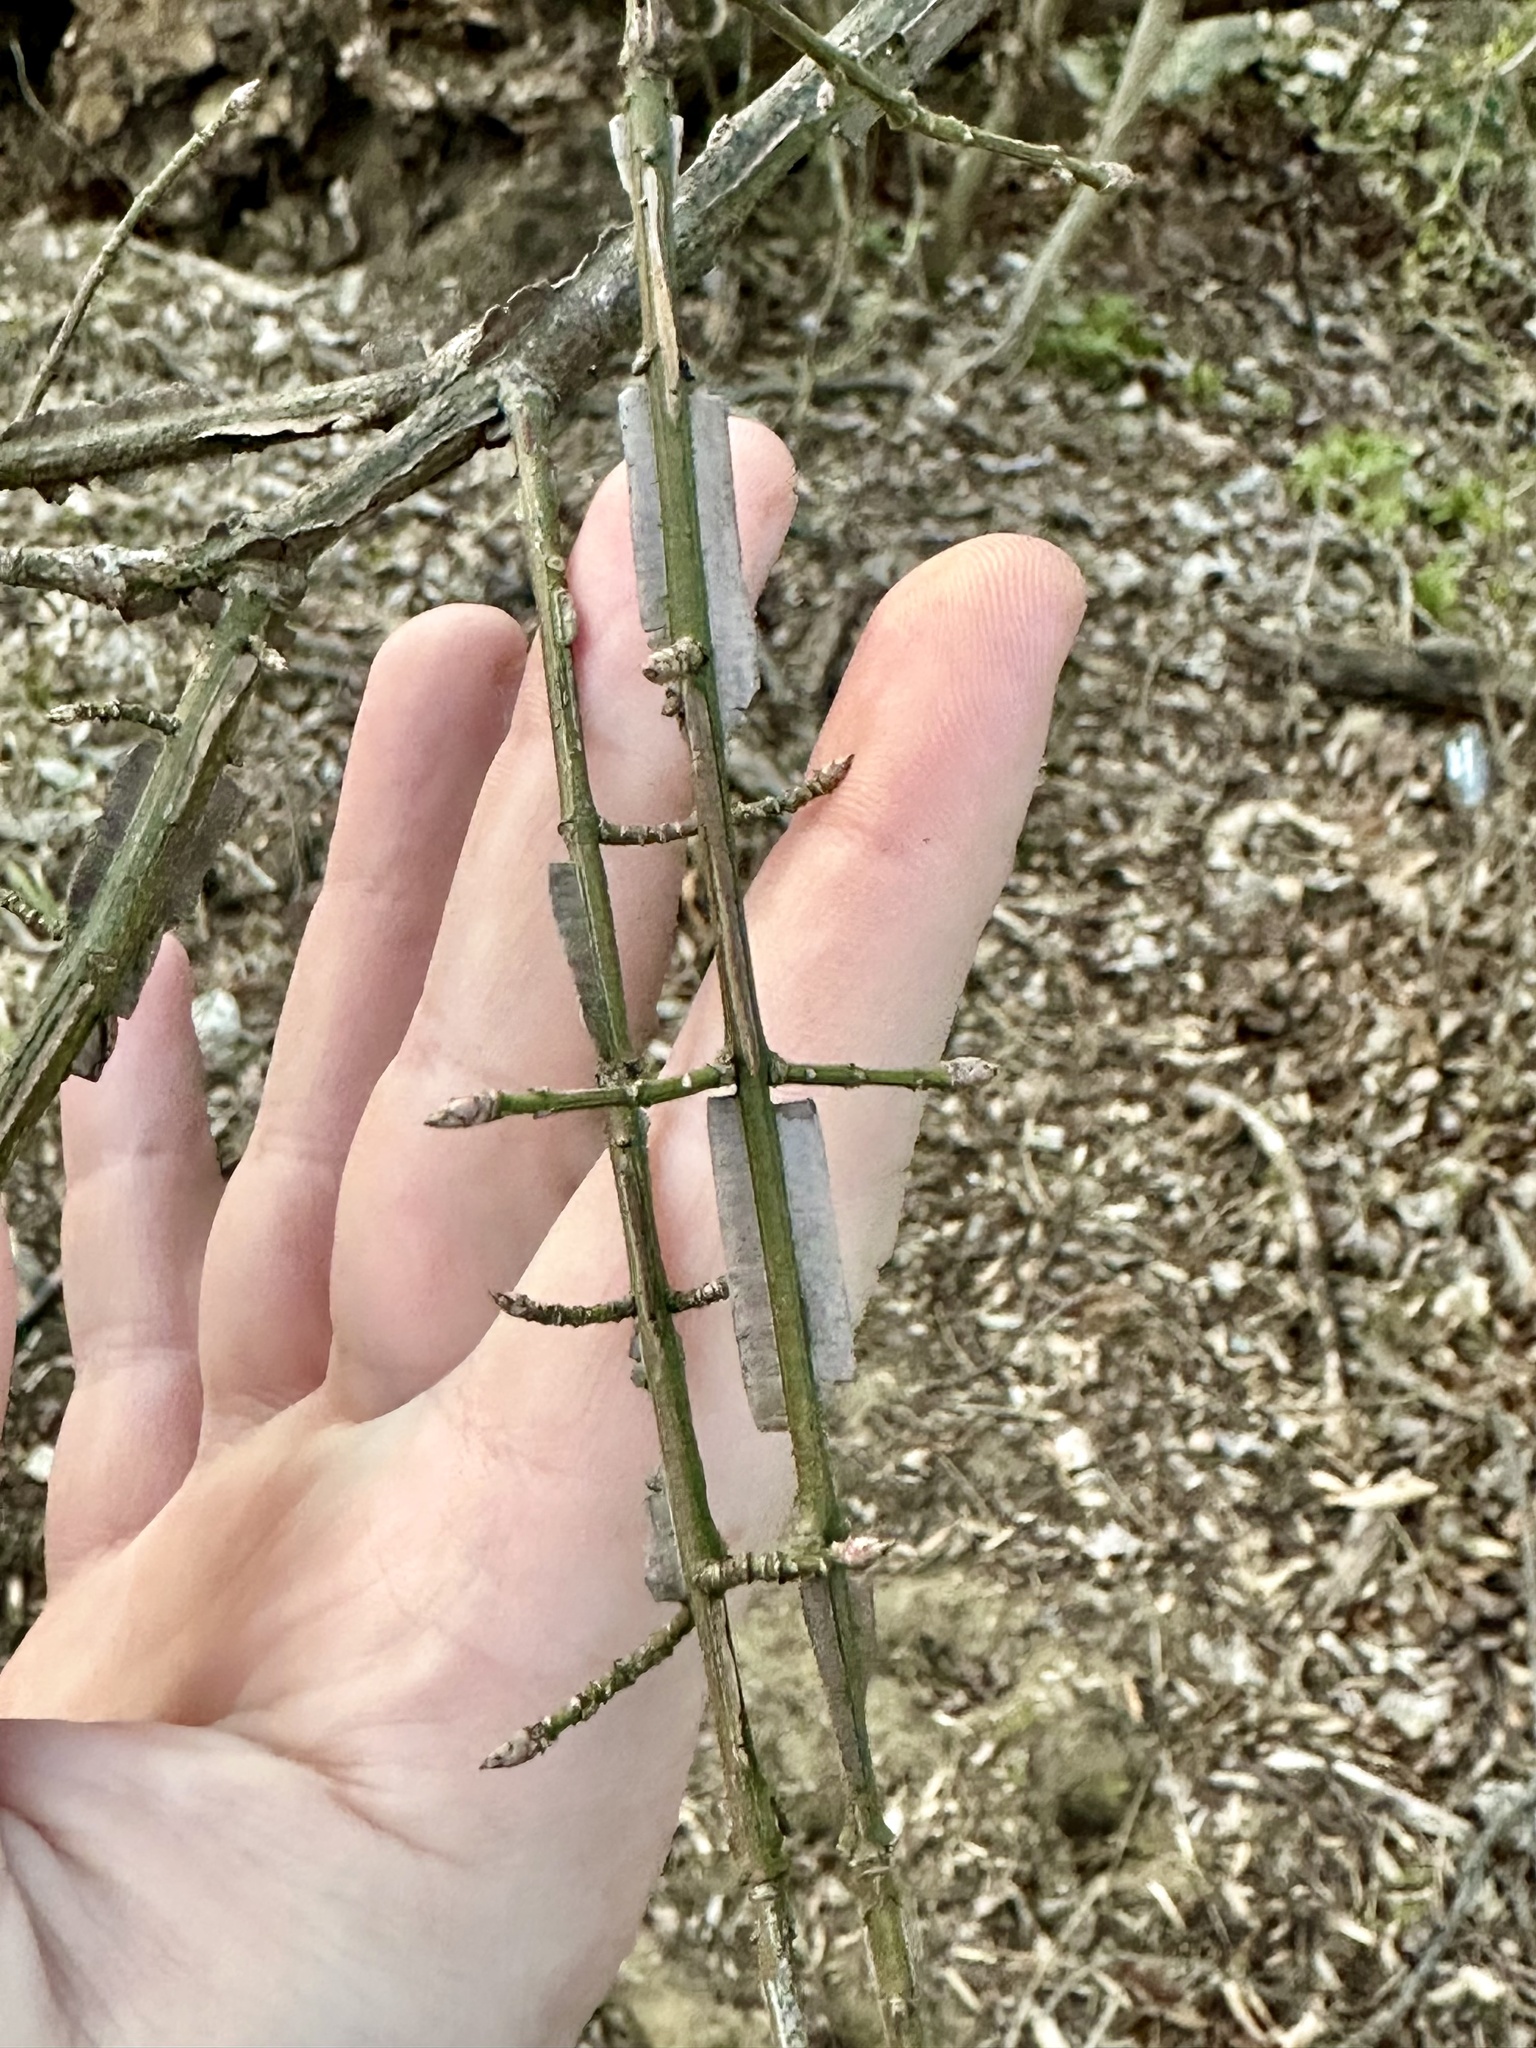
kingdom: Plantae
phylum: Tracheophyta
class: Magnoliopsida
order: Celastrales
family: Celastraceae
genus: Euonymus
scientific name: Euonymus alatus
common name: Winged euonymus
